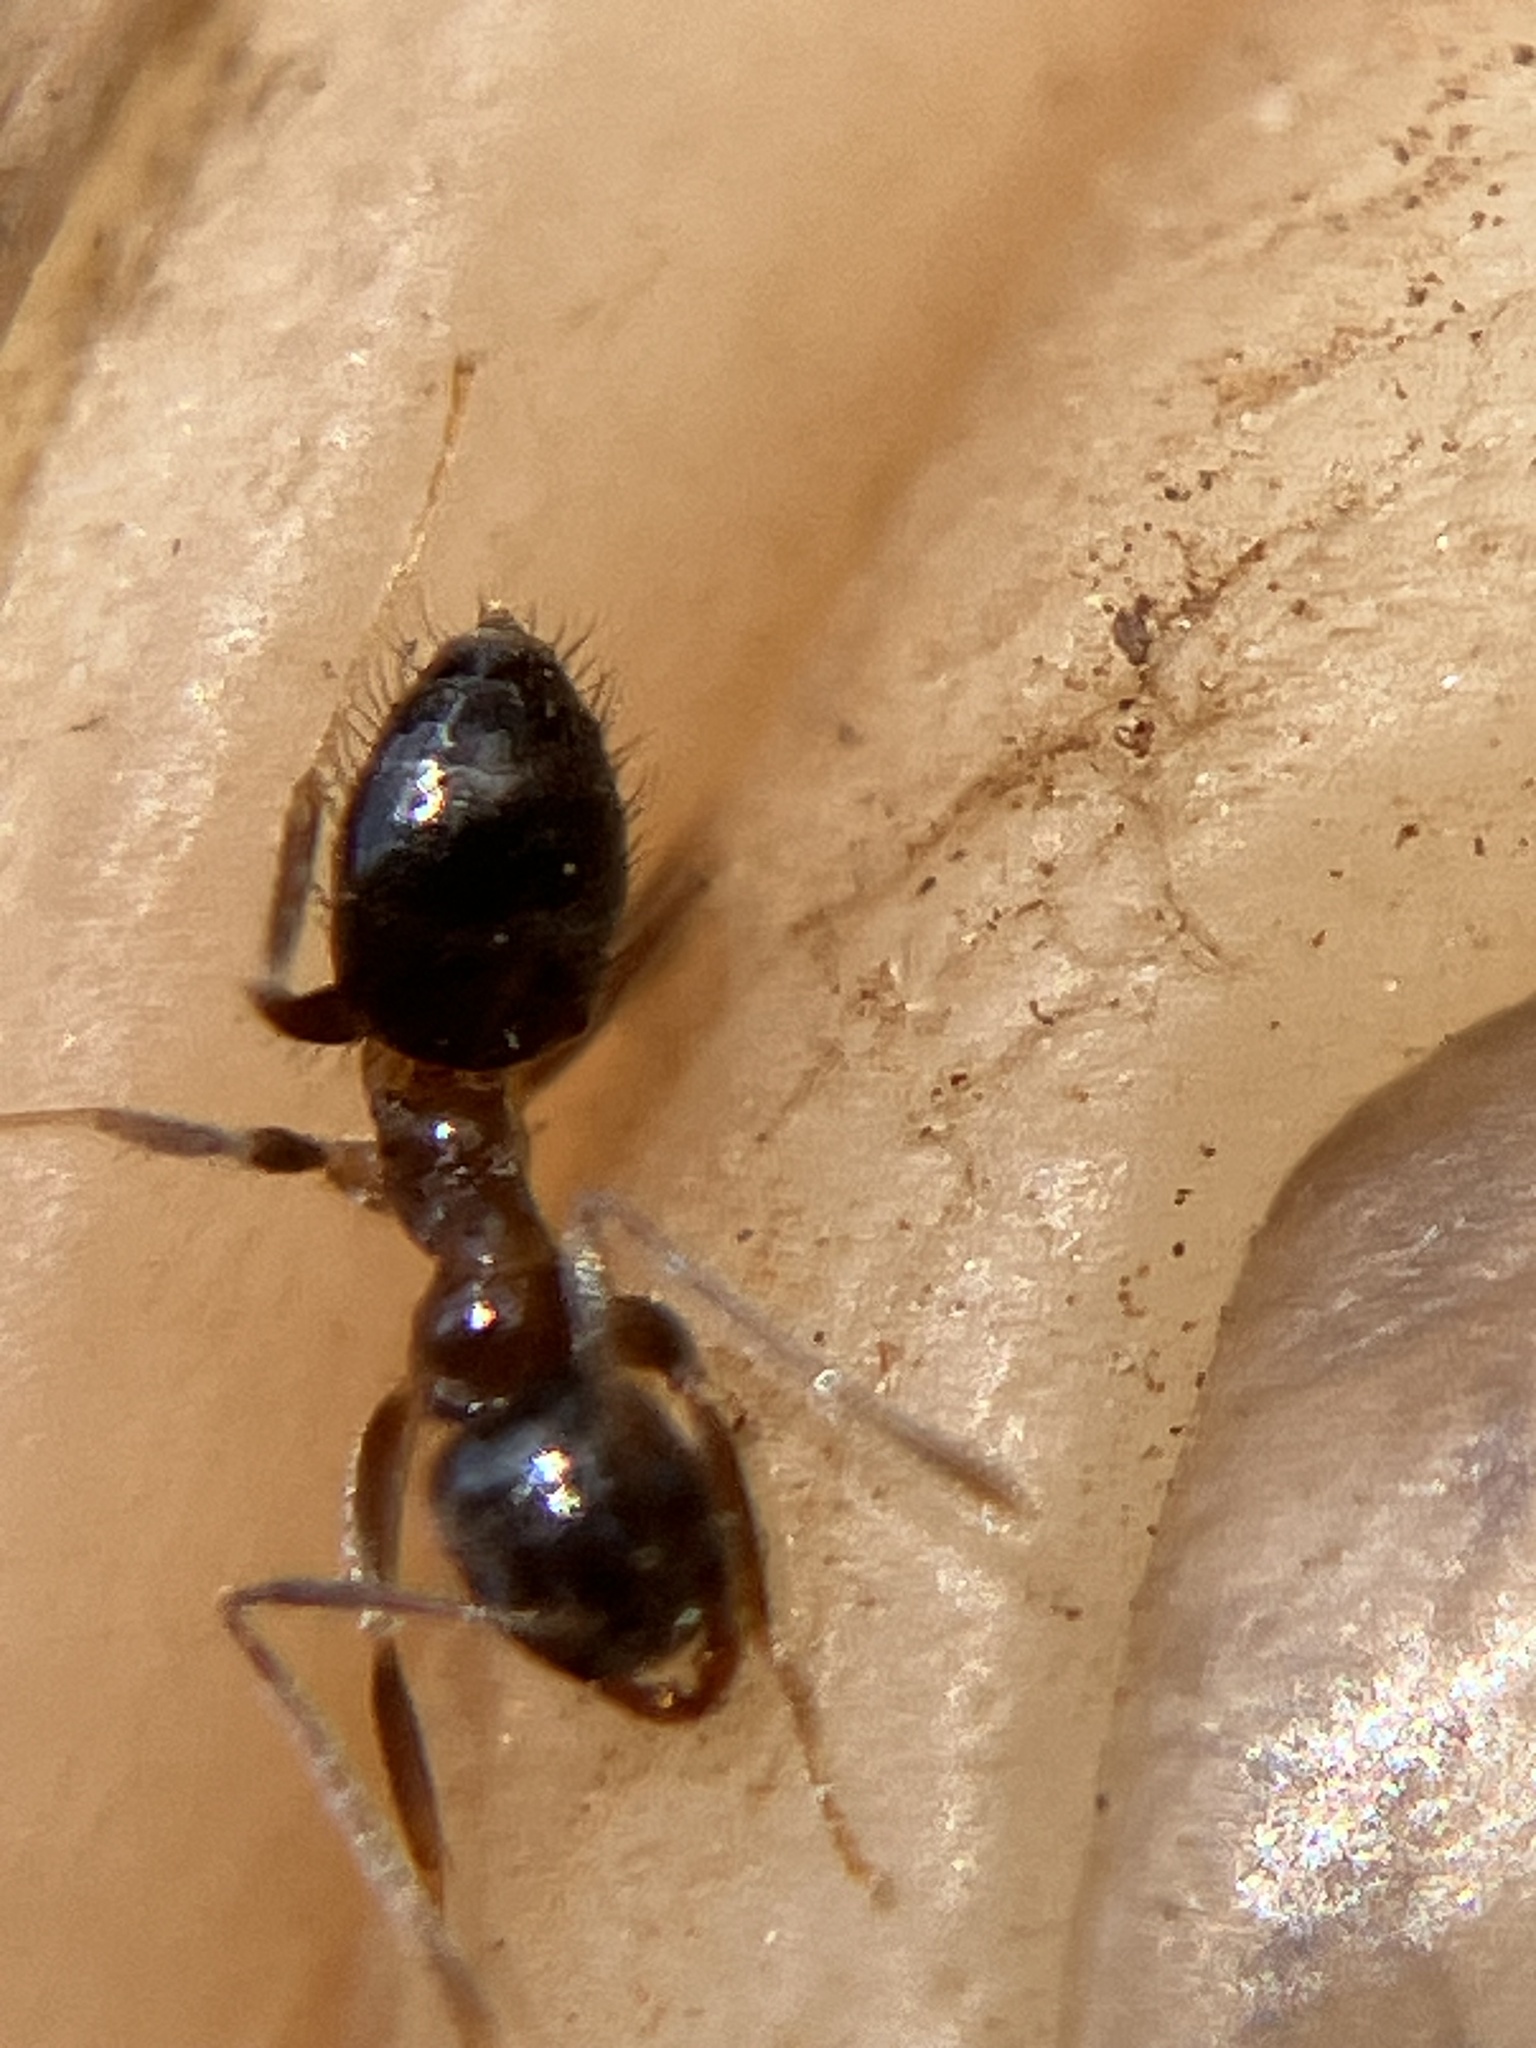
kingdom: Animalia
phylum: Arthropoda
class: Insecta
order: Hymenoptera
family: Formicidae
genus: Paratrechina
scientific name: Paratrechina bourbonica
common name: Ant
